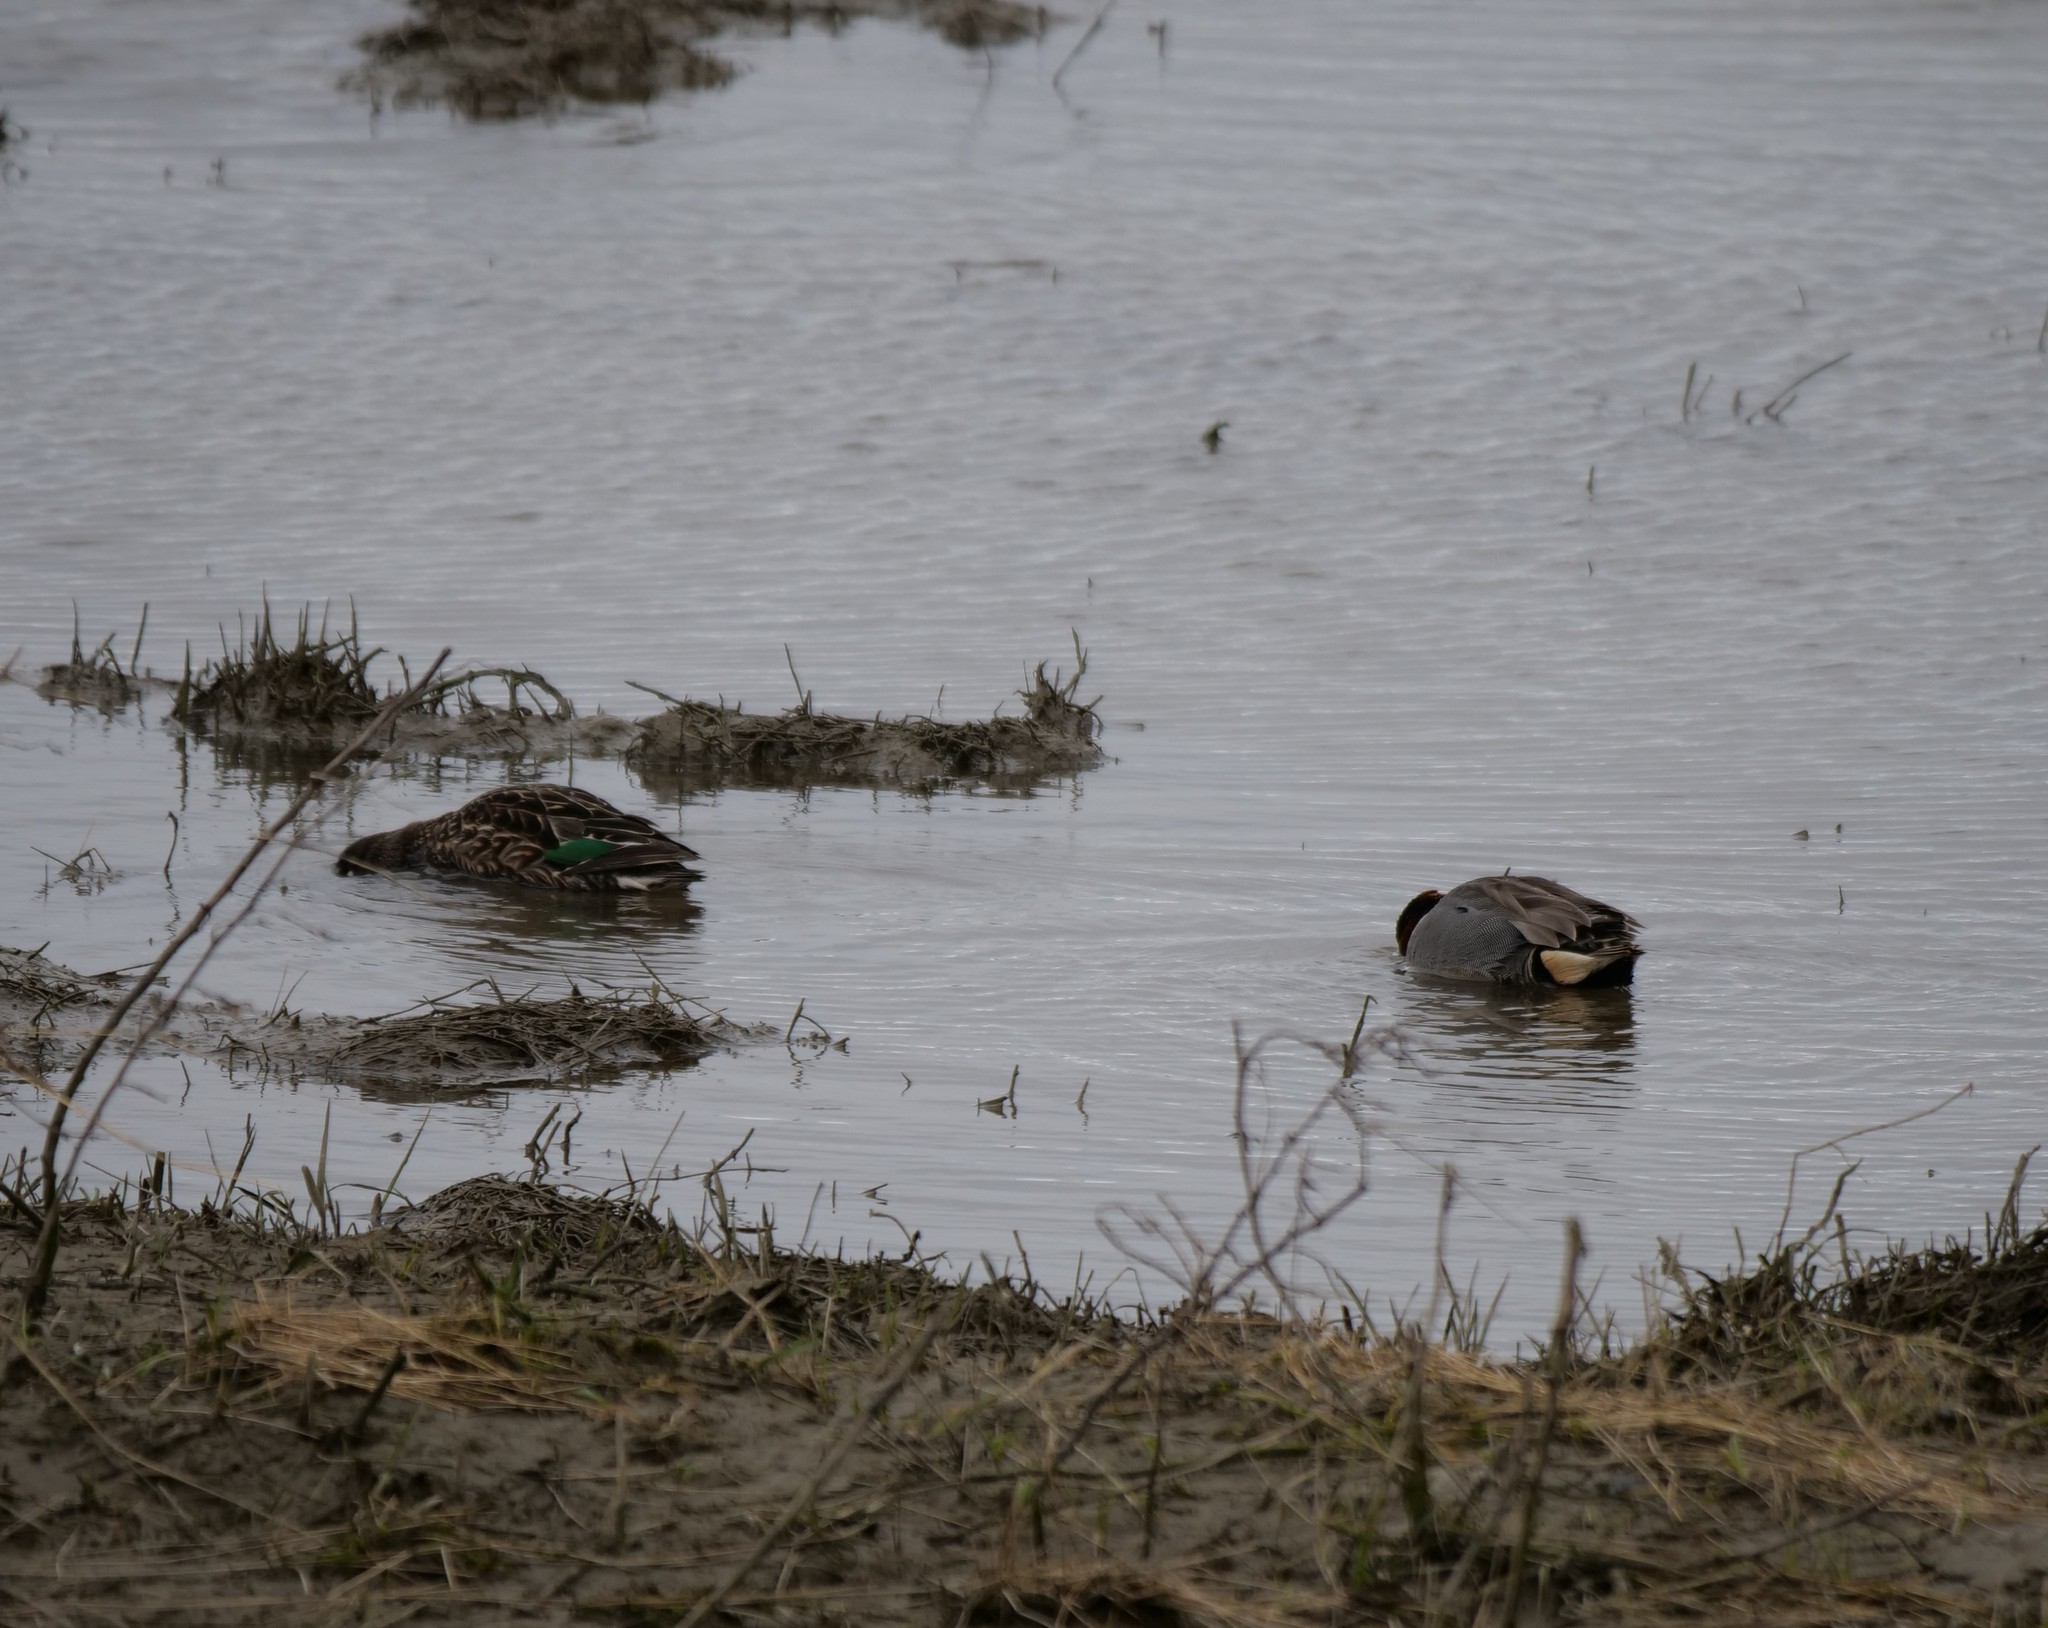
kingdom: Animalia
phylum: Chordata
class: Aves
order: Anseriformes
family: Anatidae
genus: Anas
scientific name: Anas crecca
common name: Eurasian teal
